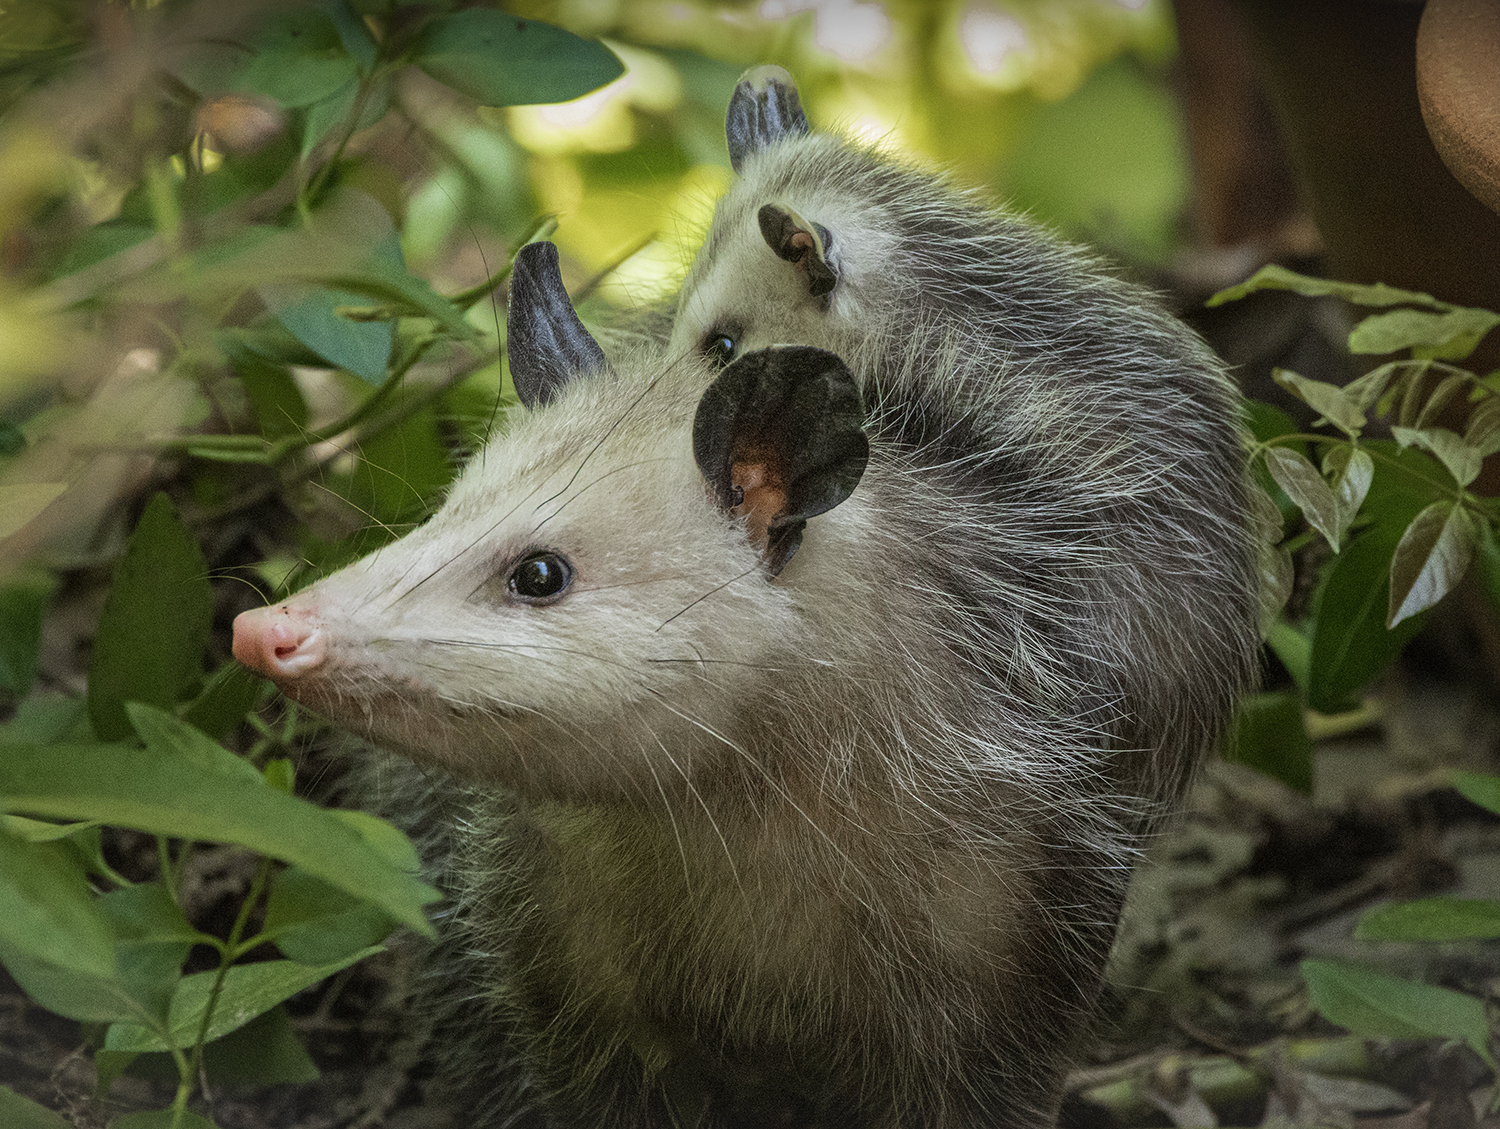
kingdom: Animalia
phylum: Chordata
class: Mammalia
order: Didelphimorphia
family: Didelphidae
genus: Didelphis
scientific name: Didelphis virginiana
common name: Virginia opossum
